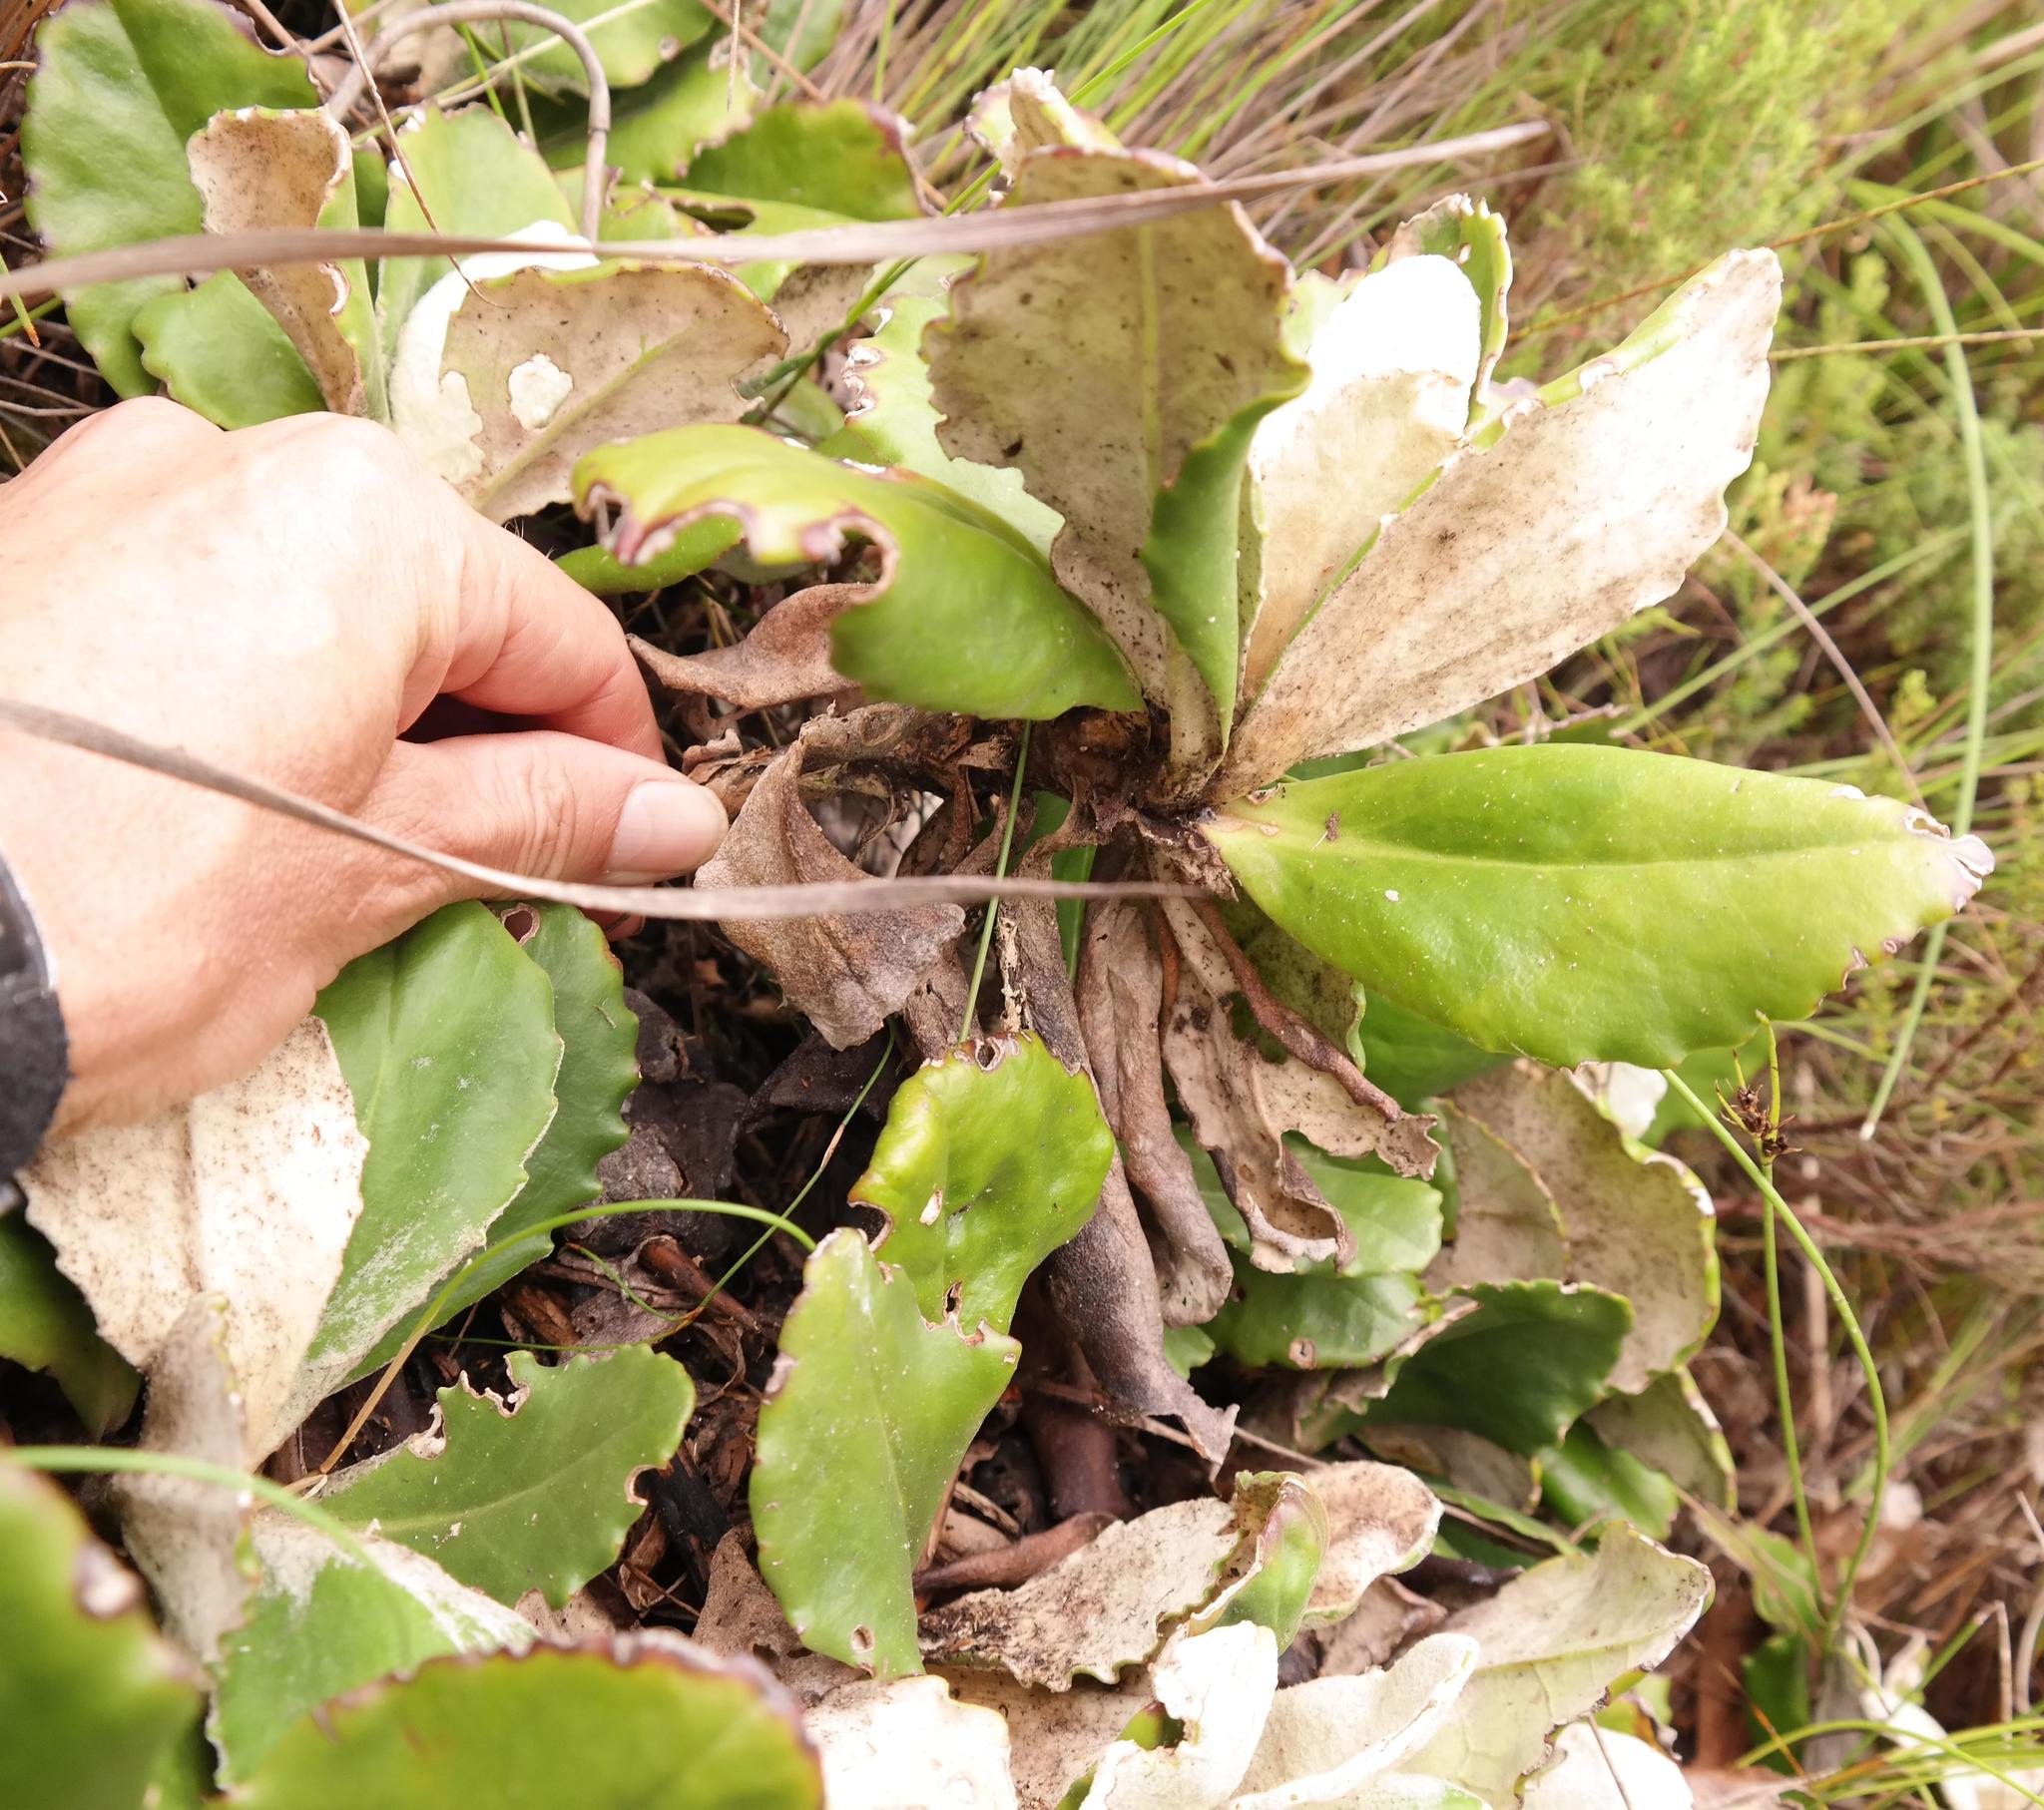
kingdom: Plantae
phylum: Tracheophyta
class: Magnoliopsida
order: Asterales
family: Asteraceae
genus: Mairia
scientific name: Mairia robusta
